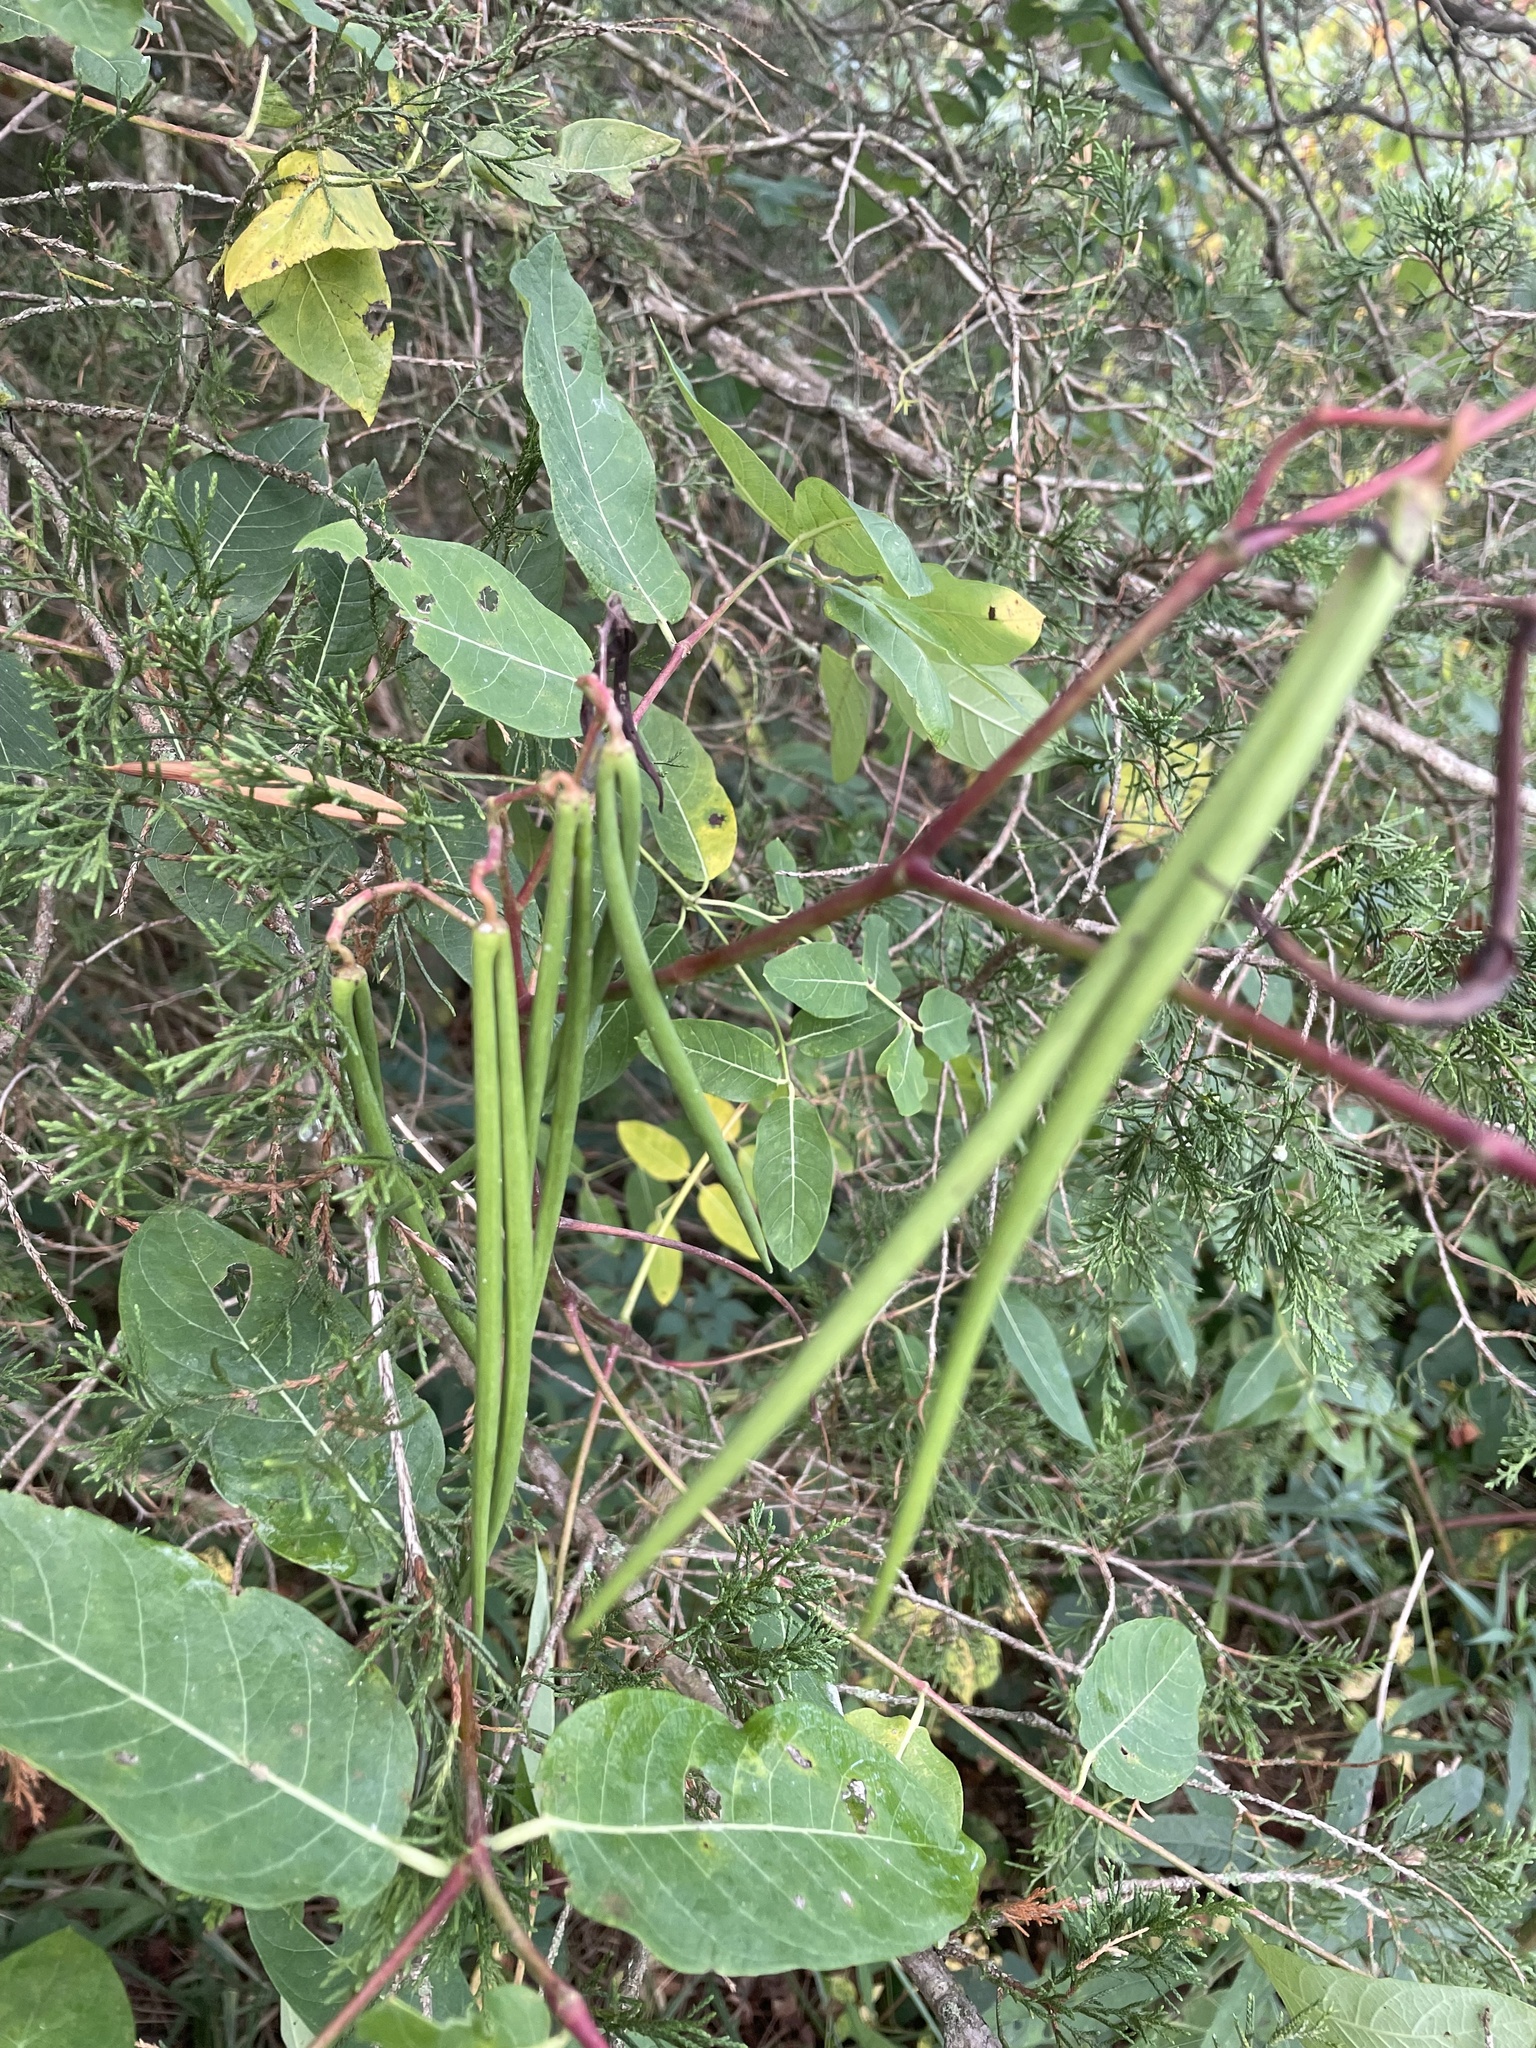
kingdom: Plantae
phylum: Tracheophyta
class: Magnoliopsida
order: Gentianales
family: Apocynaceae
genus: Apocynum
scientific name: Apocynum cannabinum
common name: Hemp dogbane
